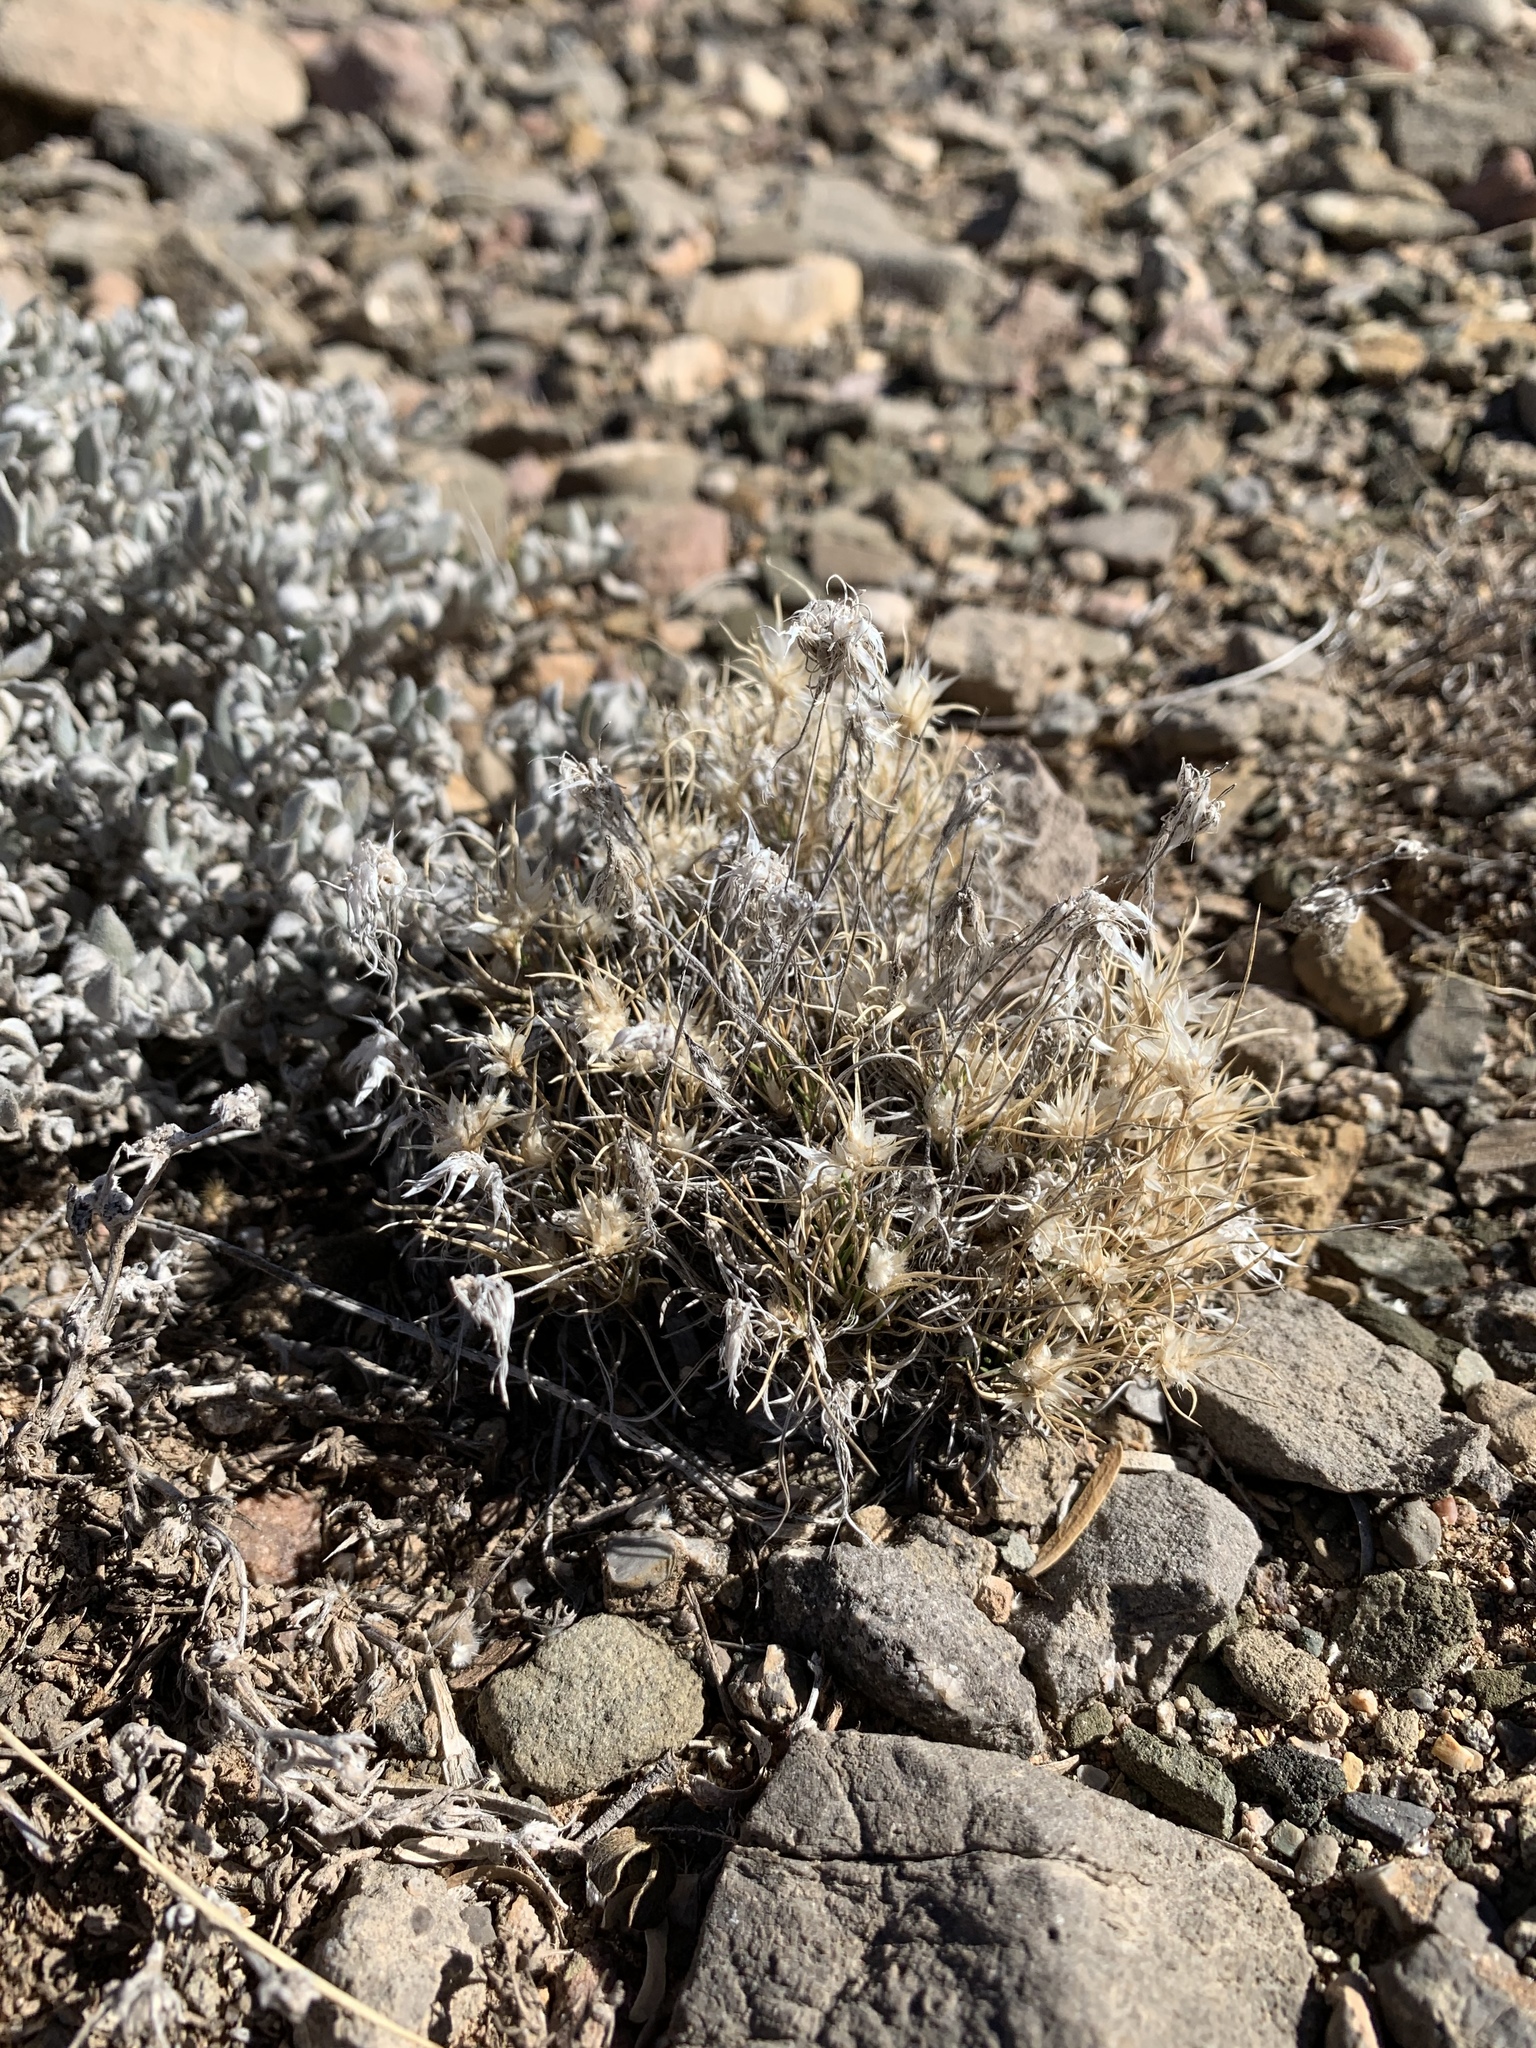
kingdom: Plantae
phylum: Tracheophyta
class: Liliopsida
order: Poales
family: Poaceae
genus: Dasyochloa
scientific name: Dasyochloa pulchella
